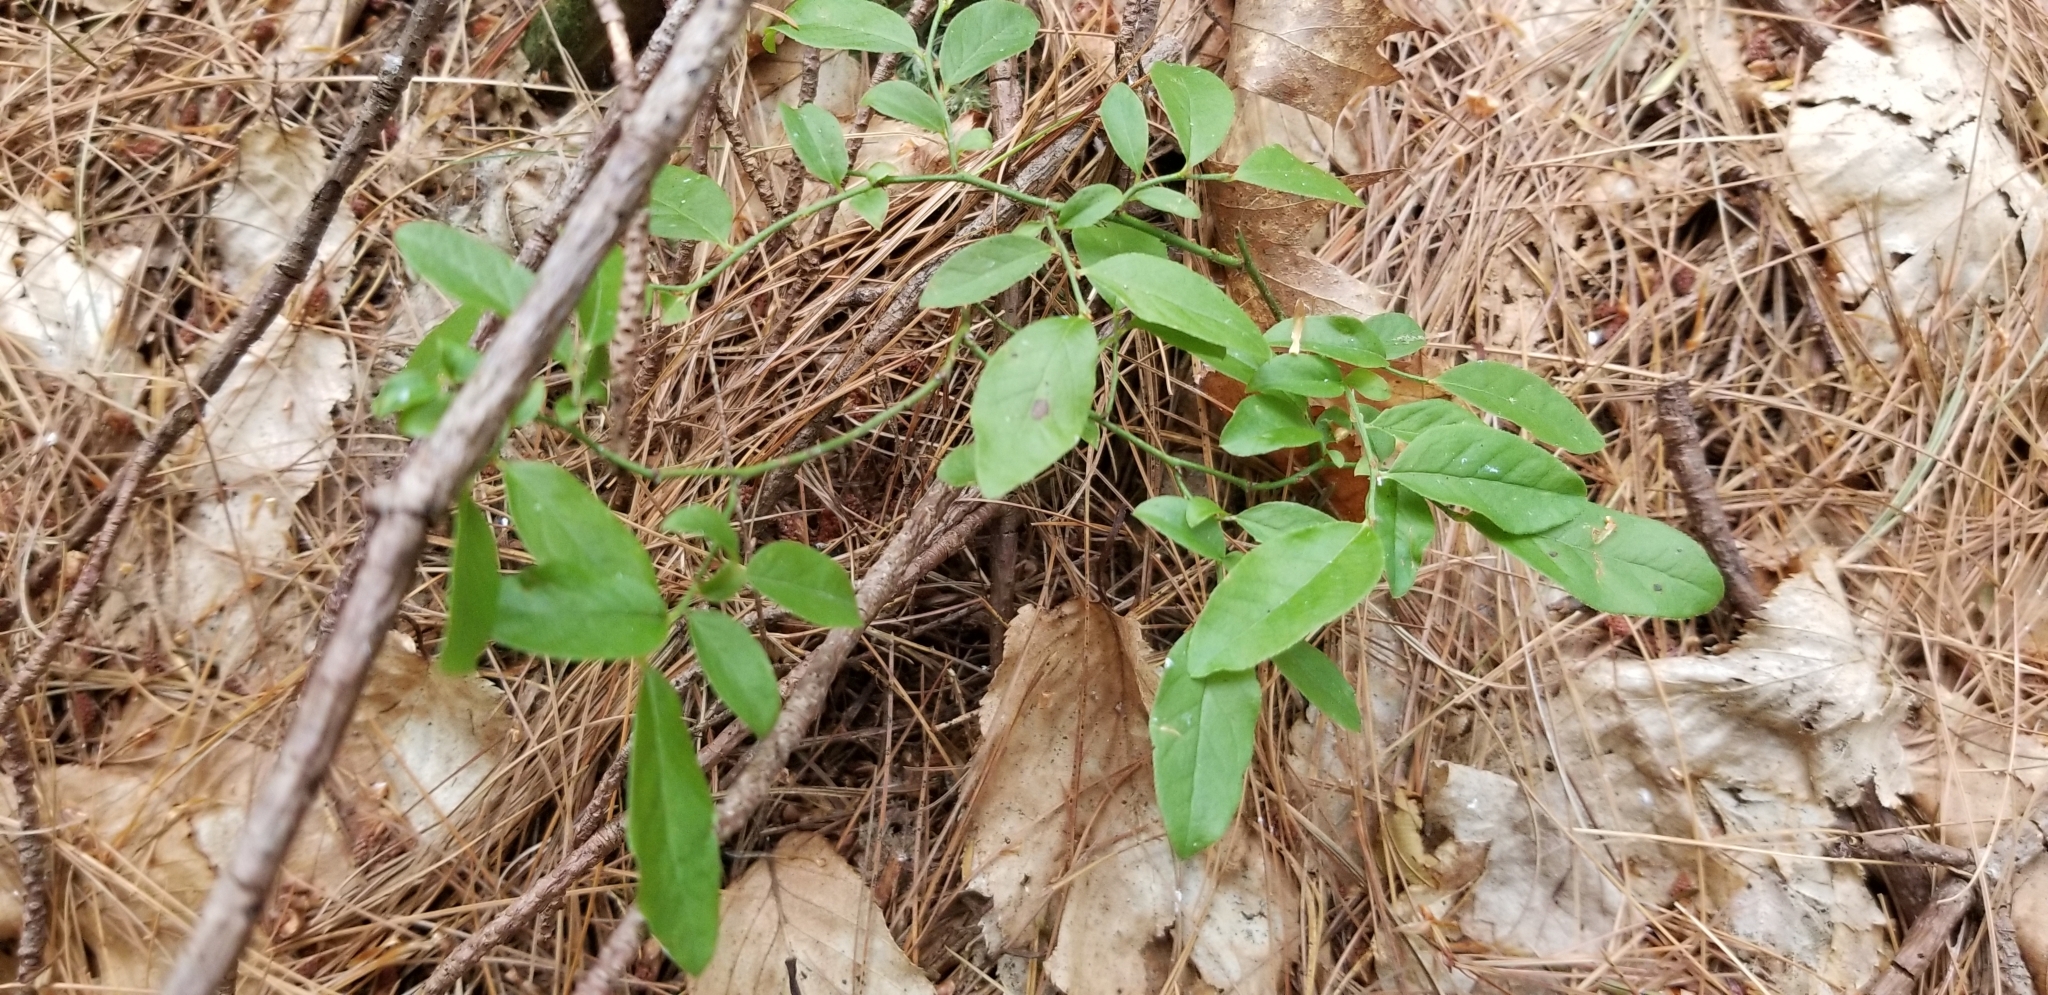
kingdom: Plantae
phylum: Tracheophyta
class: Magnoliopsida
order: Ericales
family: Ericaceae
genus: Vaccinium
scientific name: Vaccinium angustifolium
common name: Early lowbush blueberry
